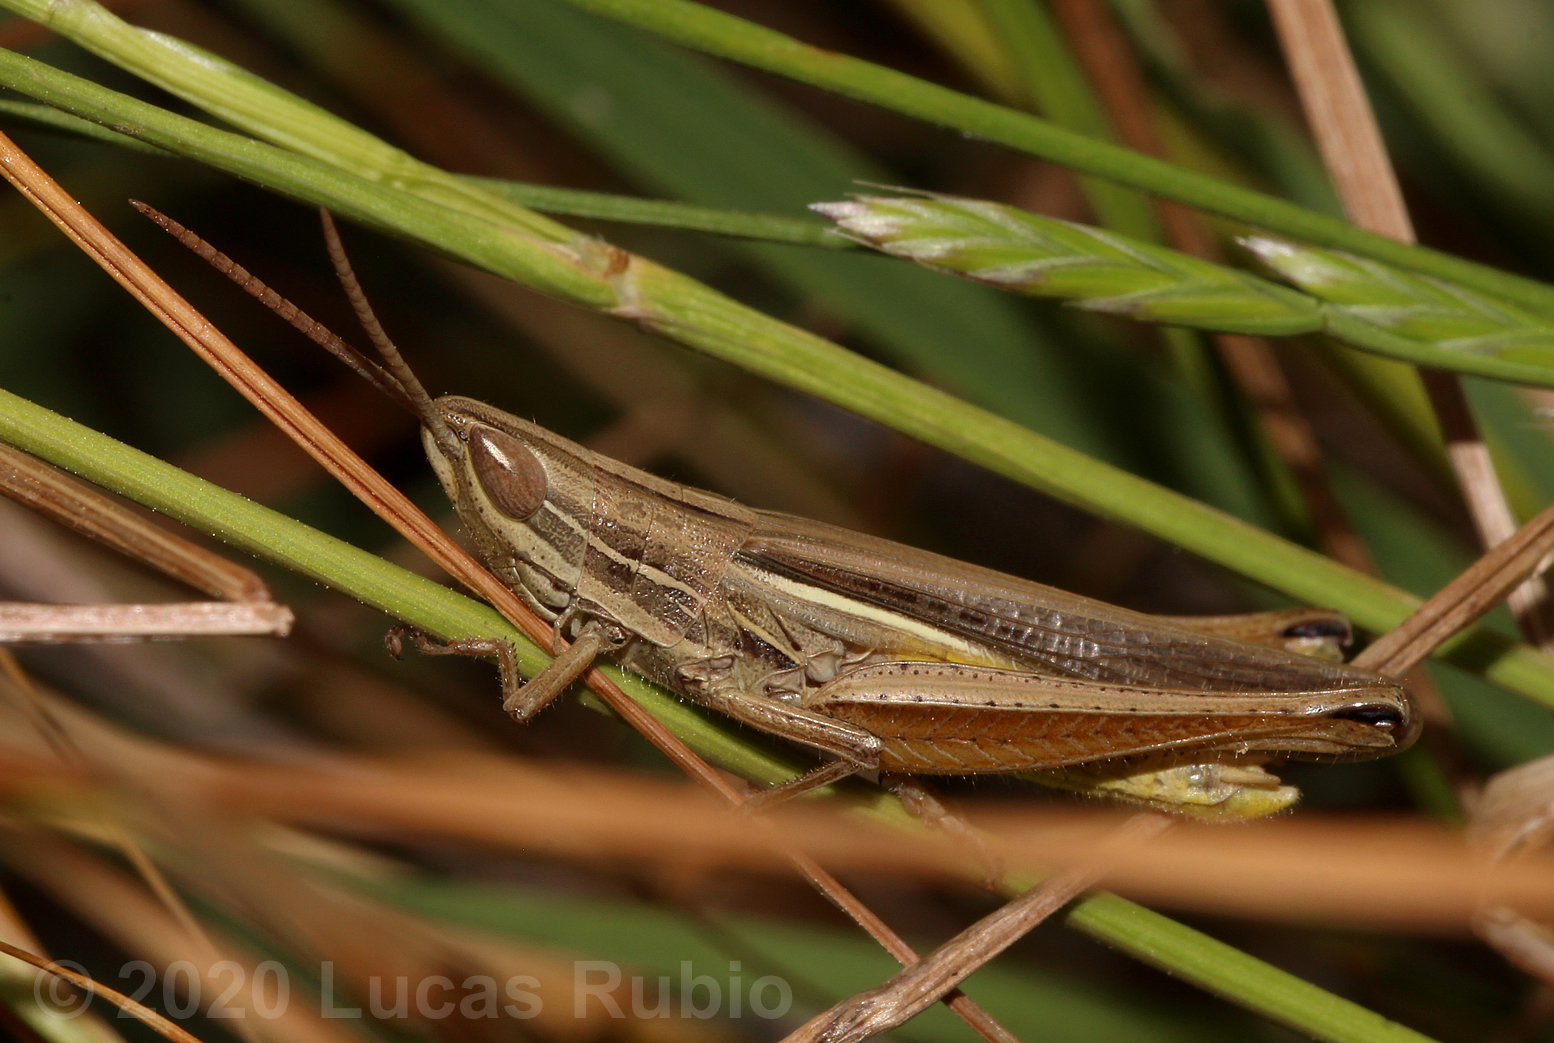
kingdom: Animalia
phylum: Arthropoda
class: Insecta
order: Orthoptera
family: Acrididae
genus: Sinipta
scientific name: Sinipta dalmani
